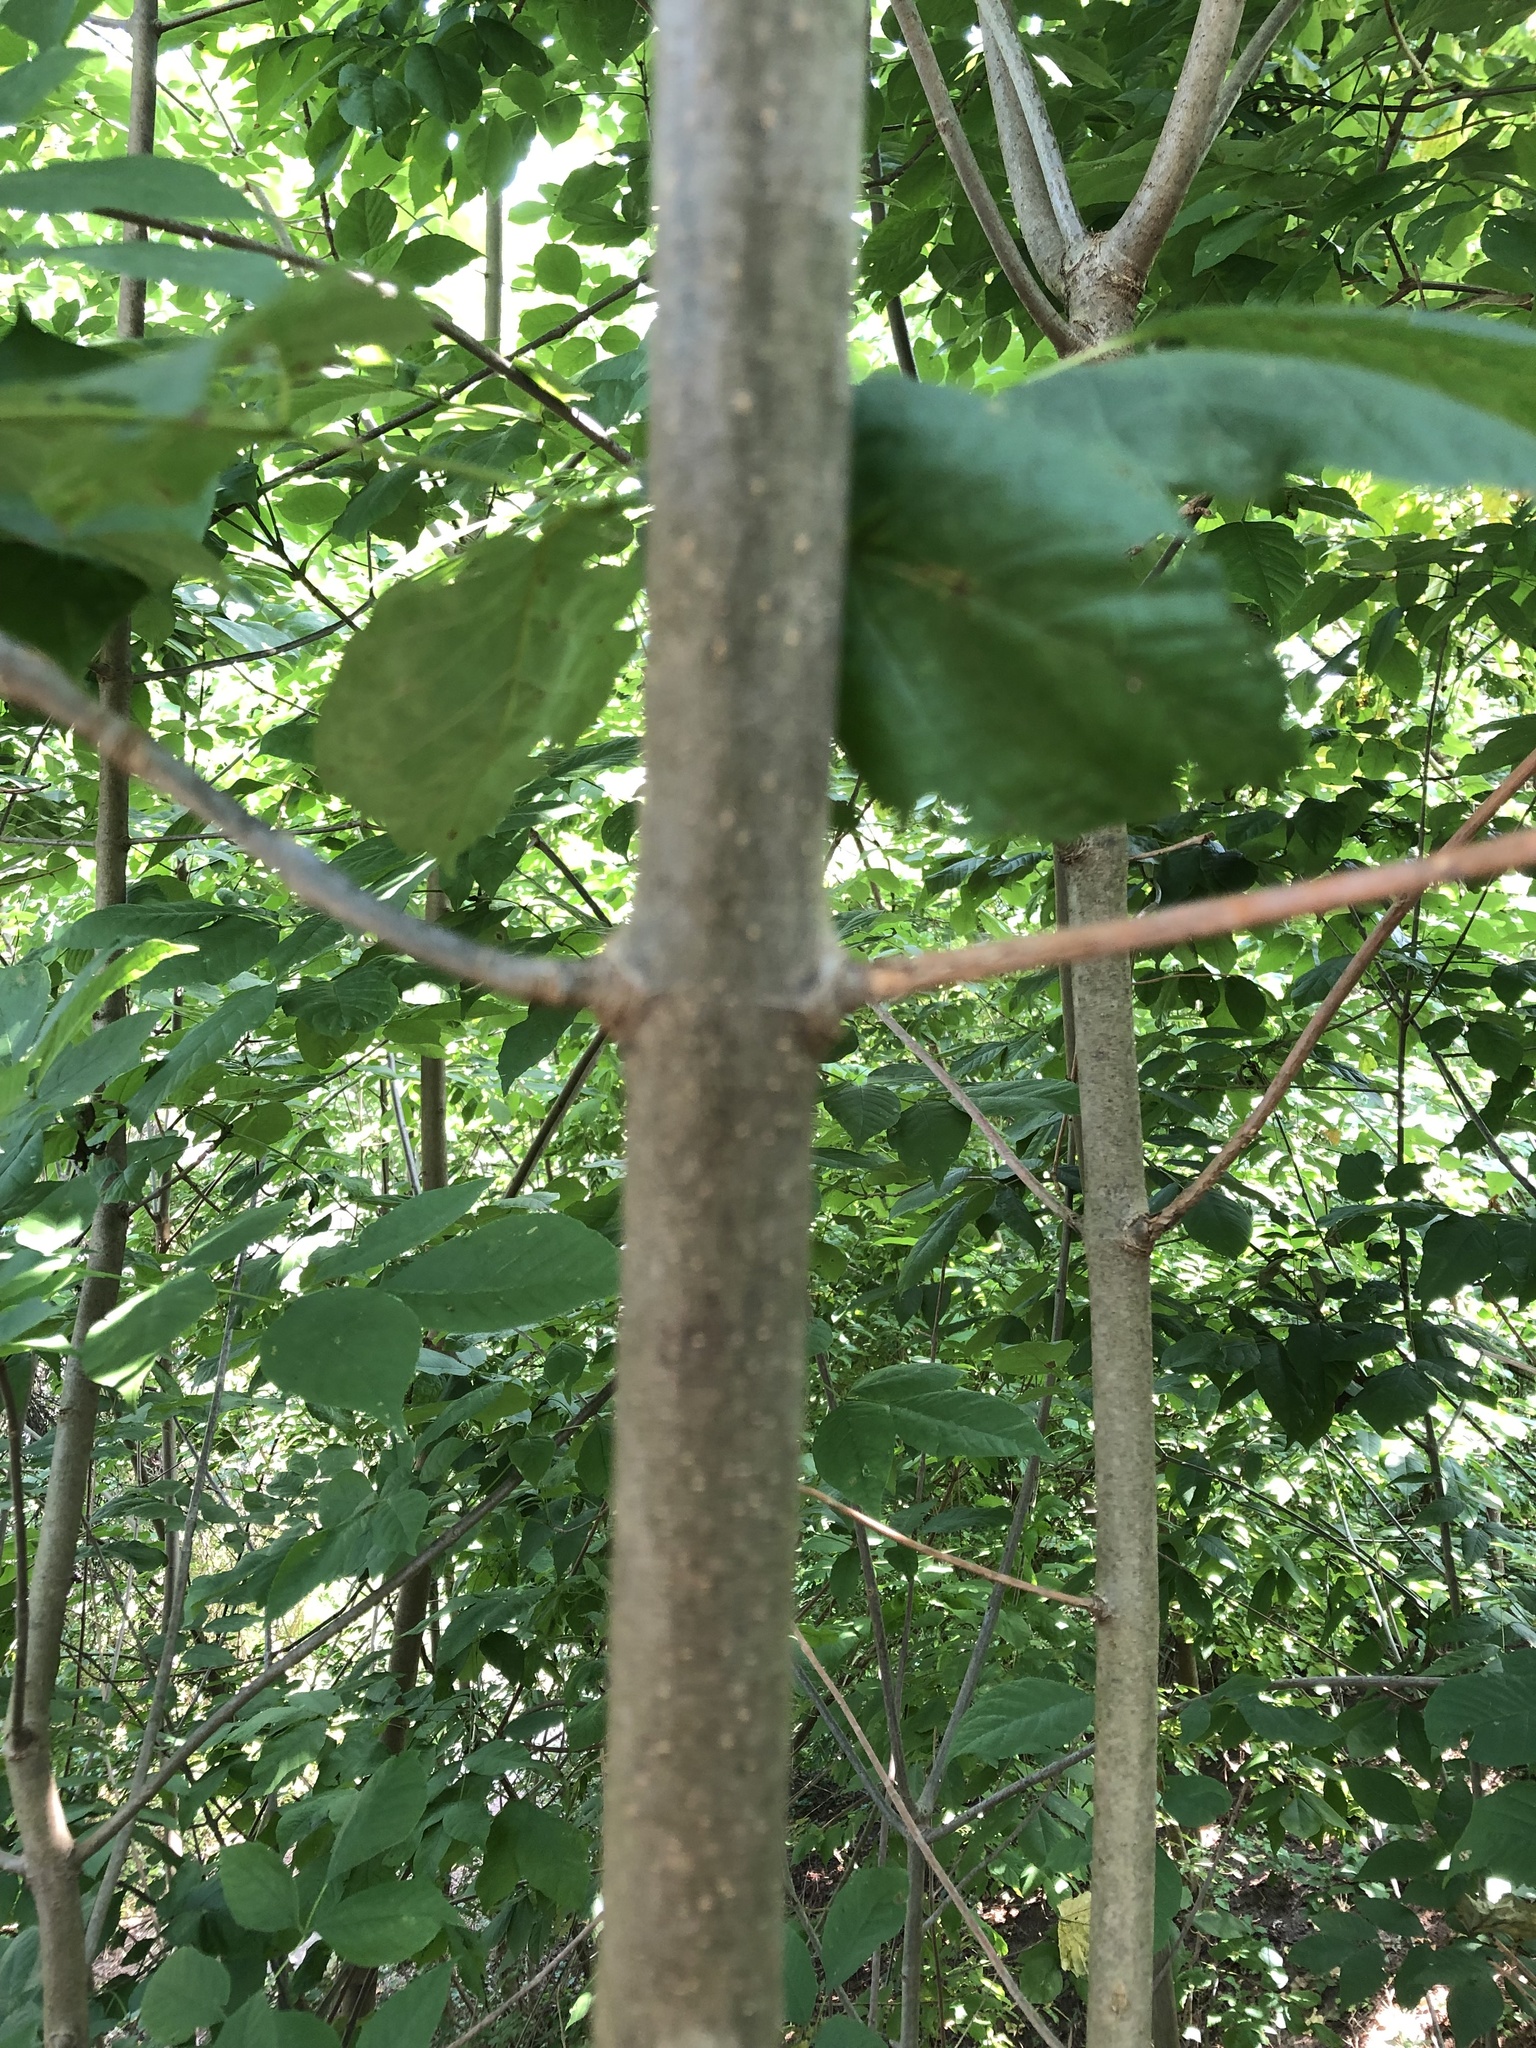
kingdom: Plantae
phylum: Tracheophyta
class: Magnoliopsida
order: Lamiales
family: Oleaceae
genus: Fraxinus
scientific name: Fraxinus pennsylvanica
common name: Green ash
